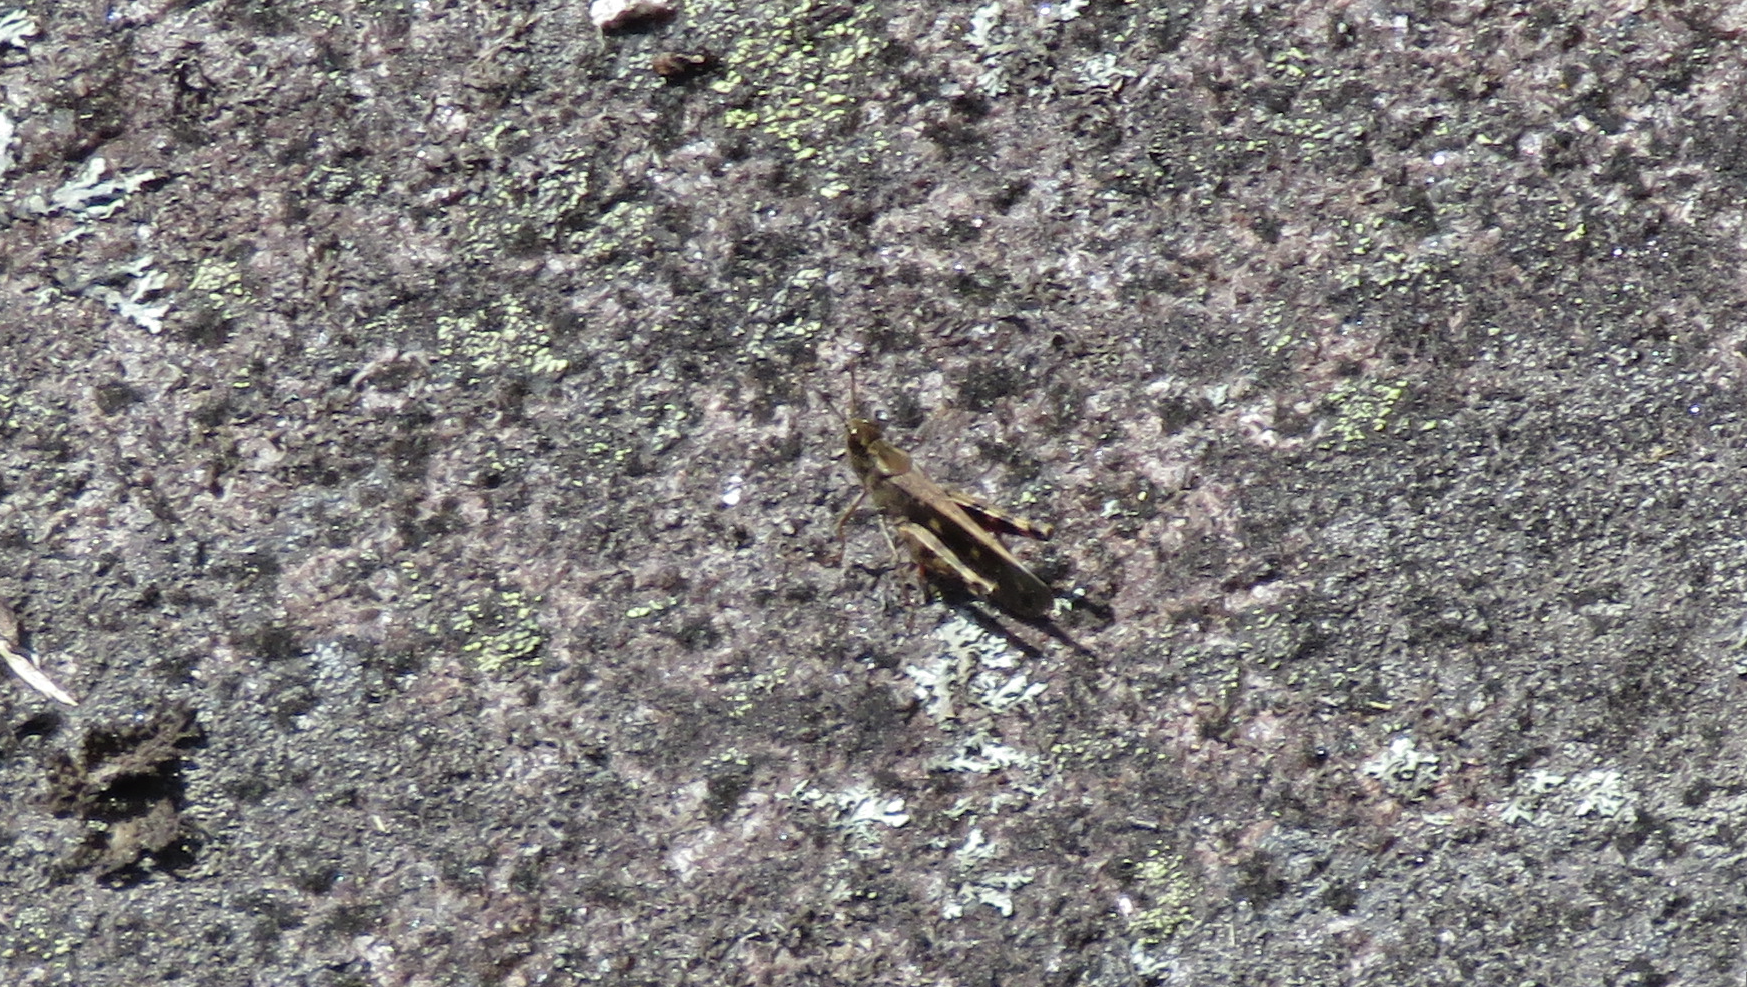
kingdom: Animalia
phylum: Arthropoda
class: Insecta
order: Orthoptera
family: Acrididae
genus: Aiolopus
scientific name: Aiolopus strepens
